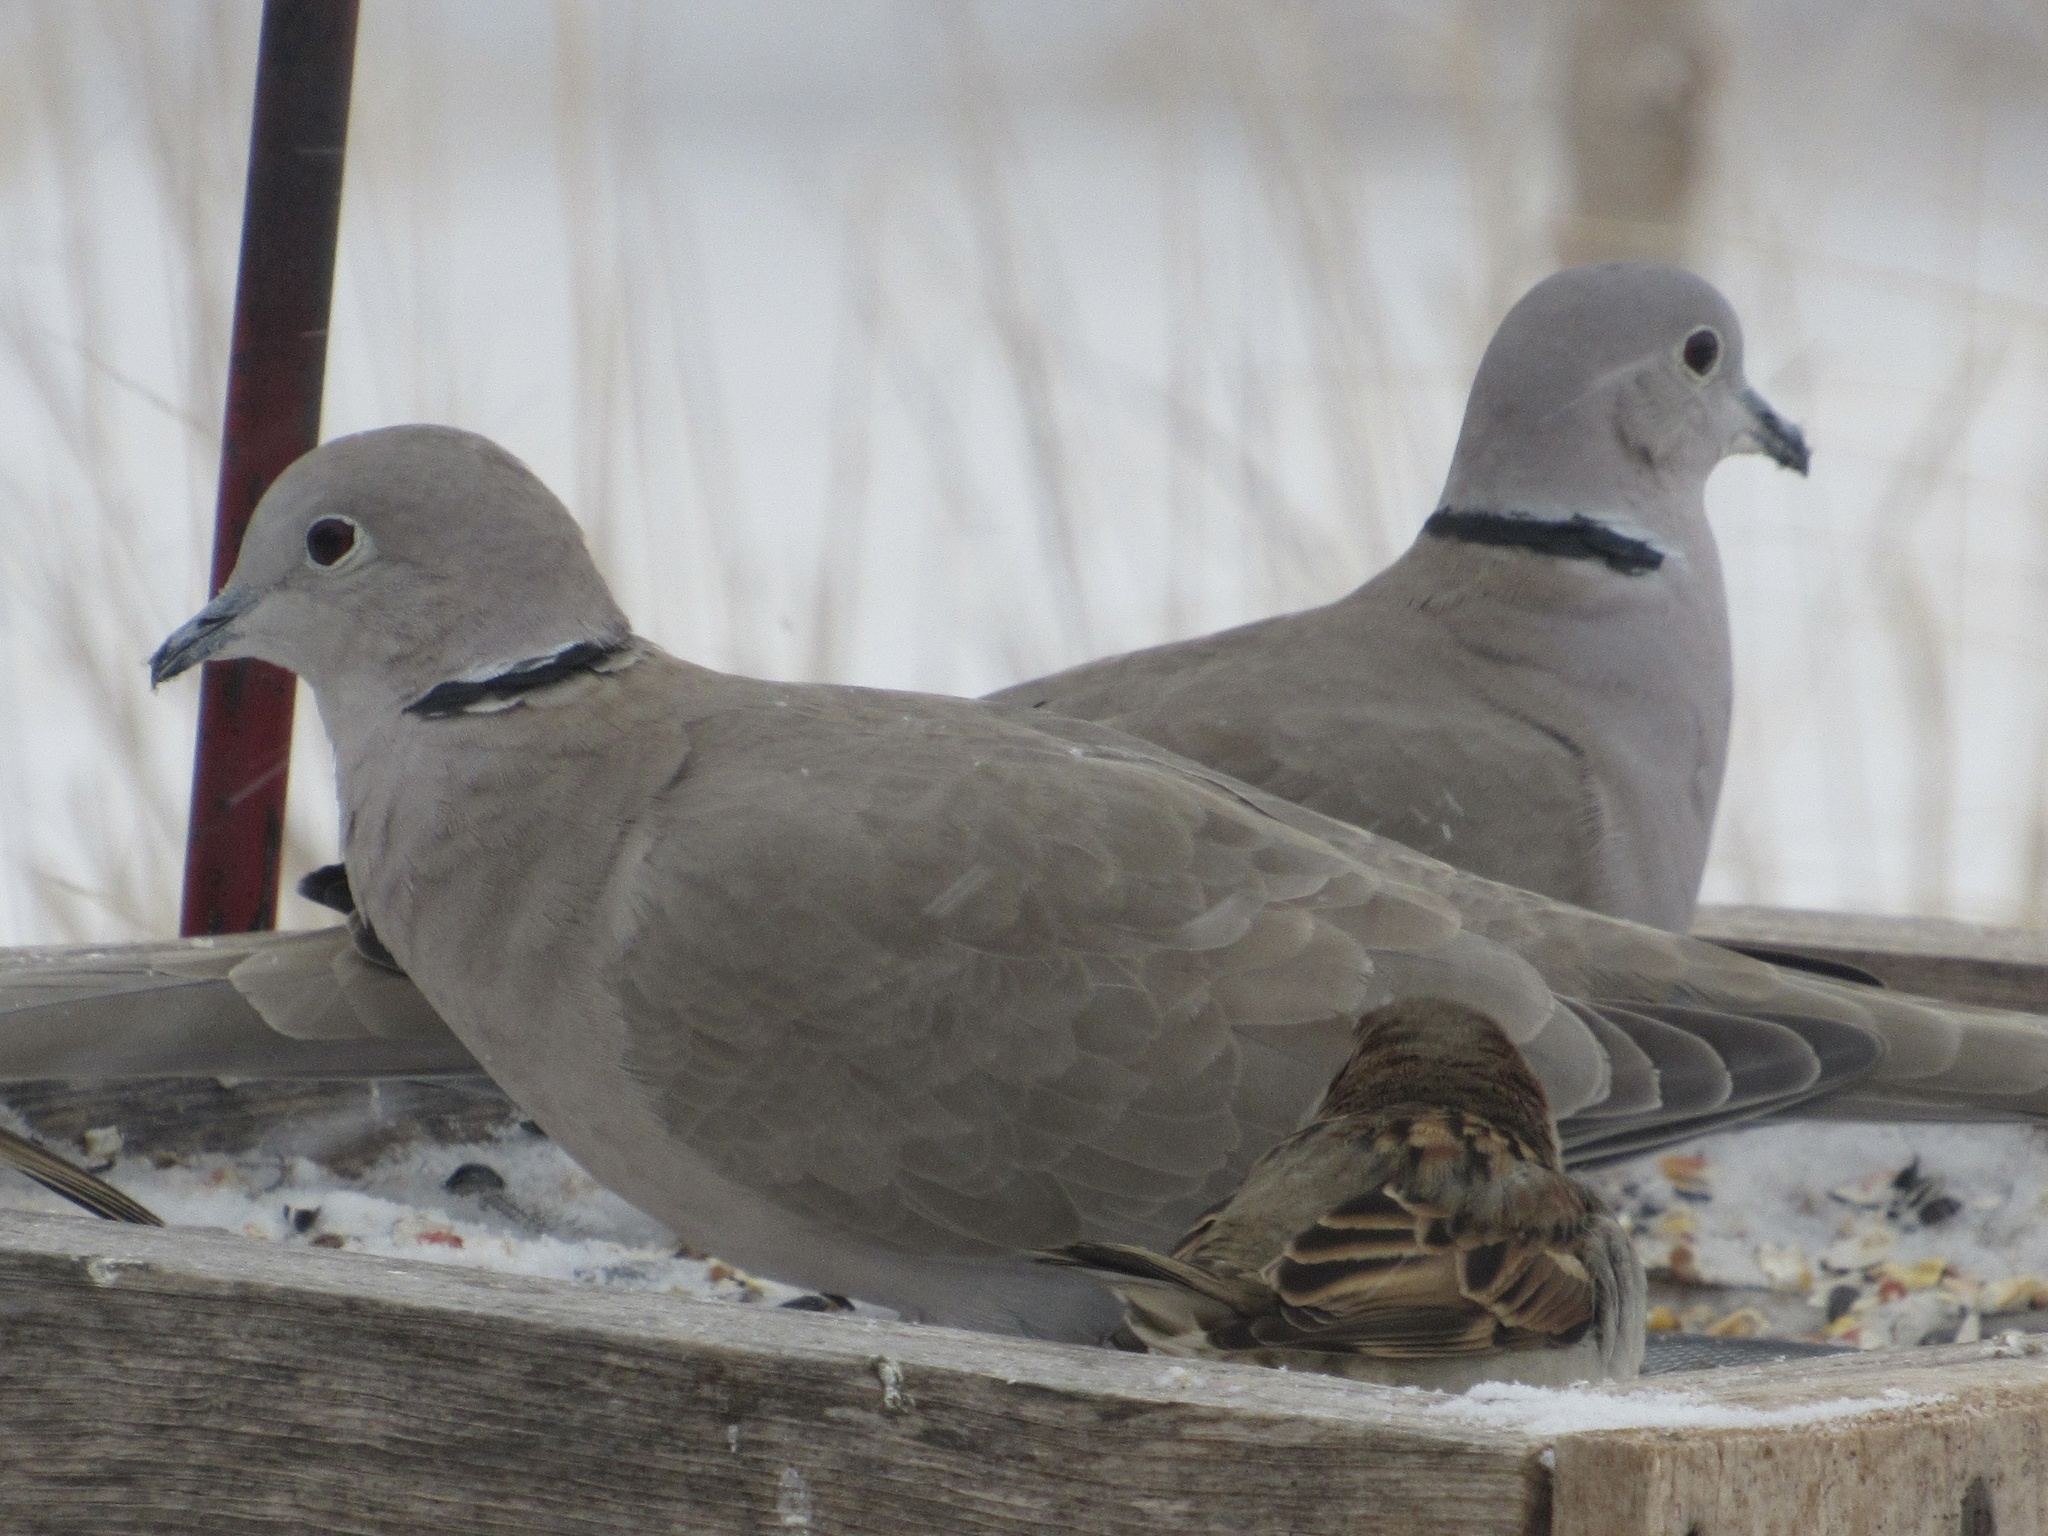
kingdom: Animalia
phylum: Chordata
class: Aves
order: Columbiformes
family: Columbidae
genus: Streptopelia
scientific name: Streptopelia decaocto
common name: Eurasian collared dove
